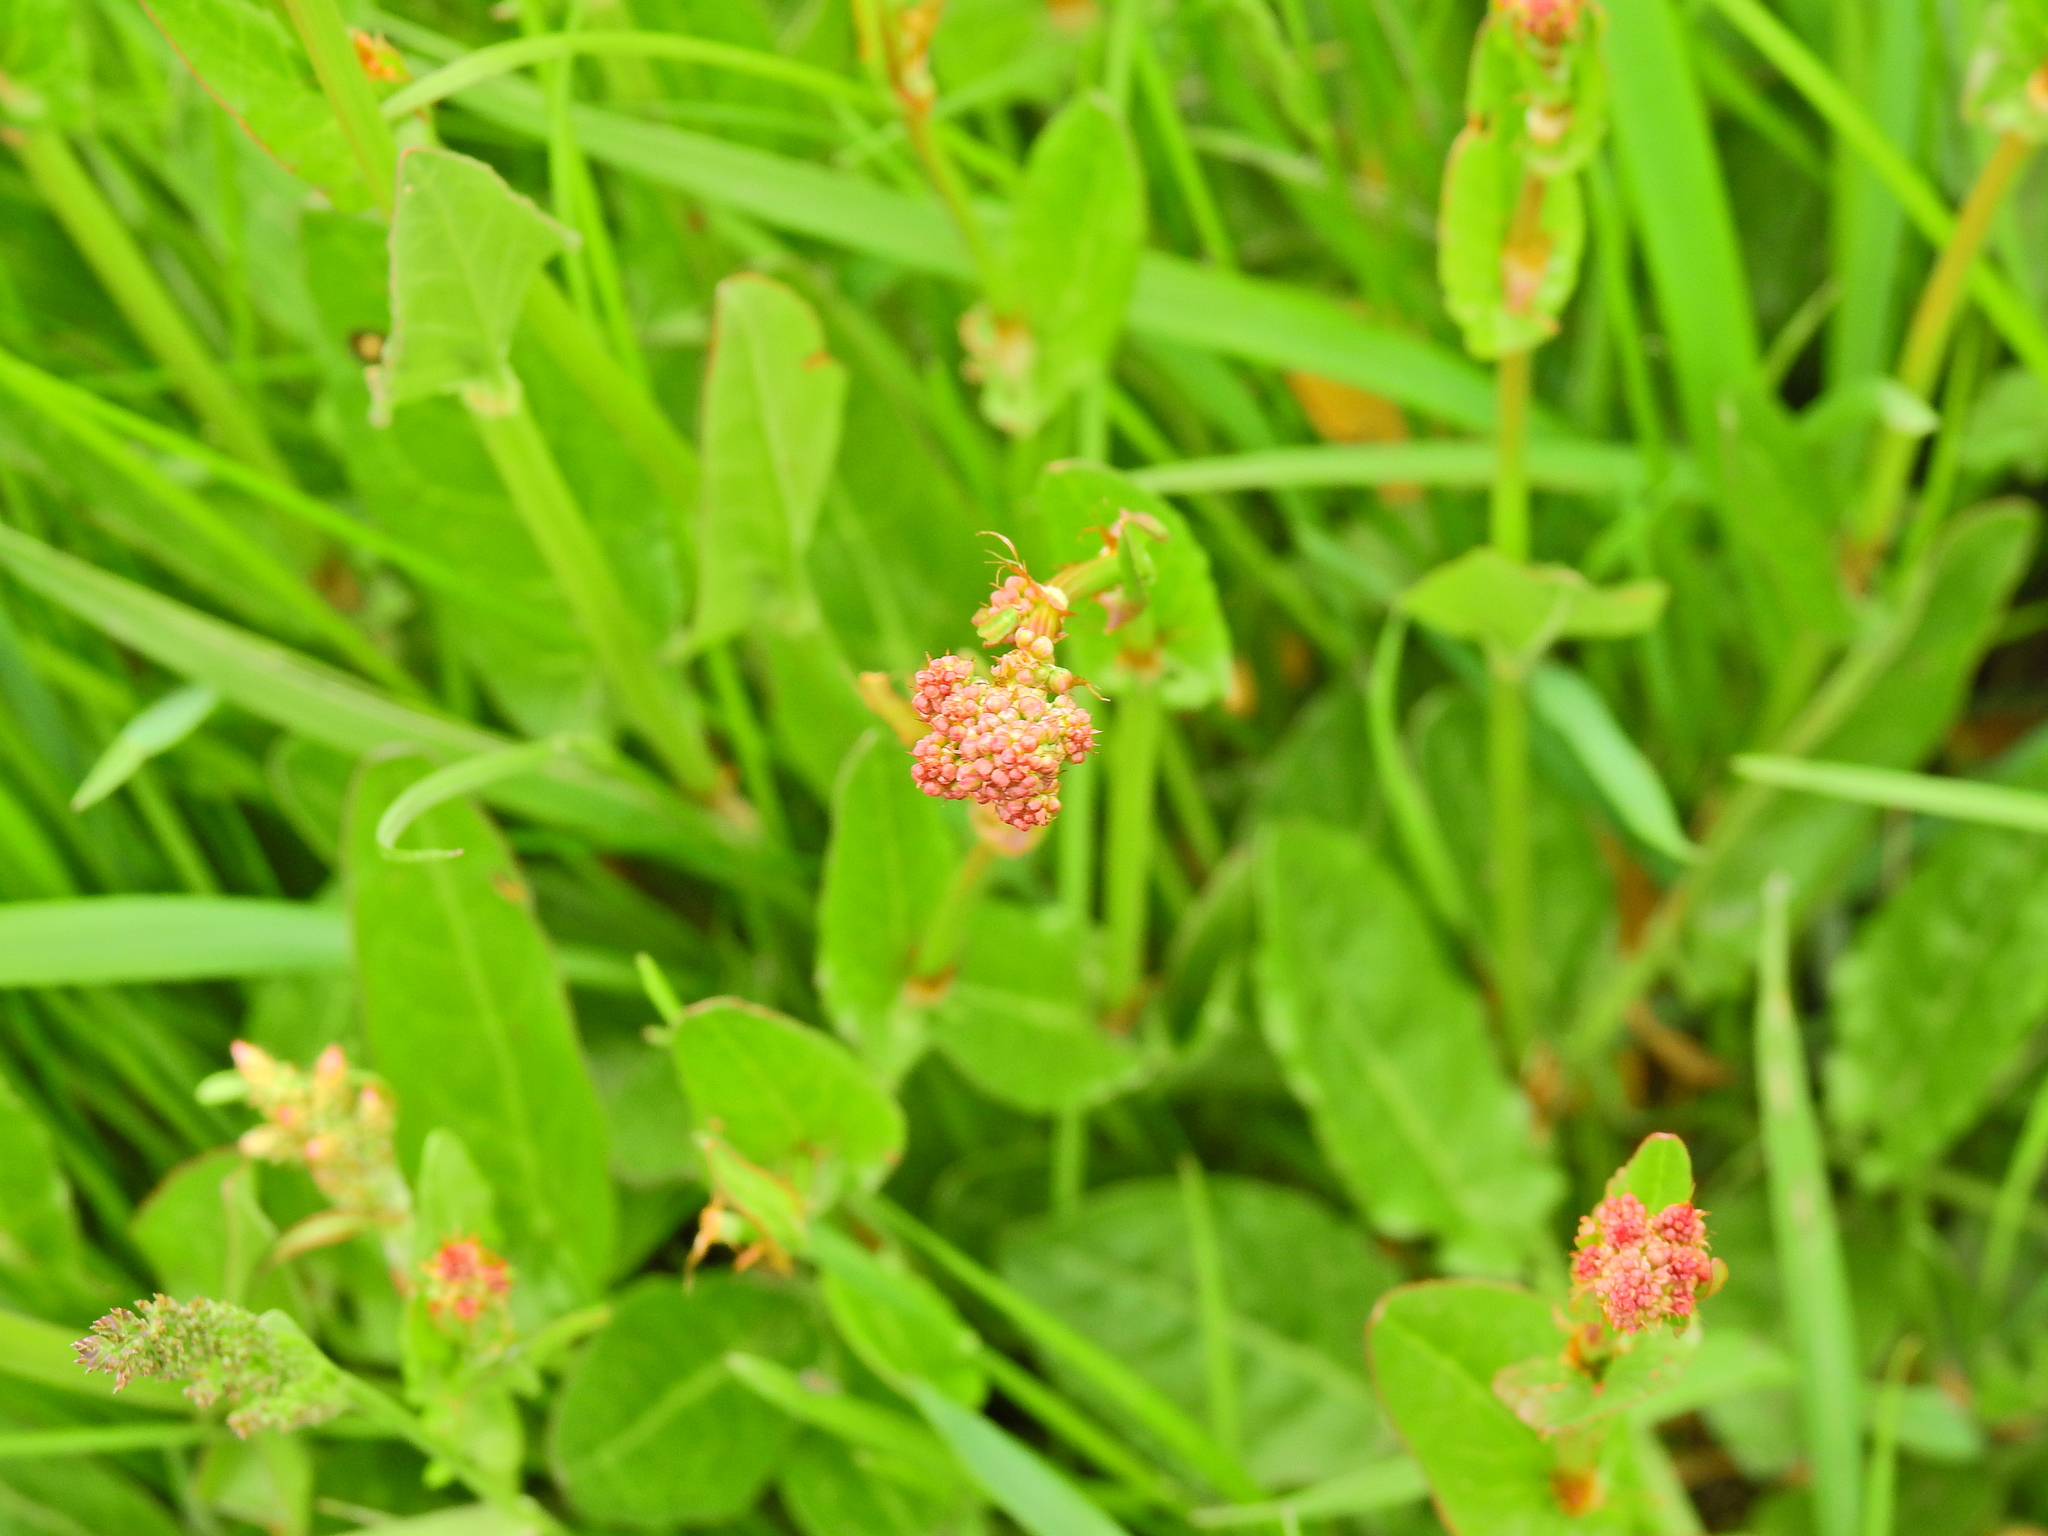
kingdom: Plantae
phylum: Tracheophyta
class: Magnoliopsida
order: Caryophyllales
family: Polygonaceae
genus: Rumex
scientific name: Rumex acetosa
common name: Garden sorrel
